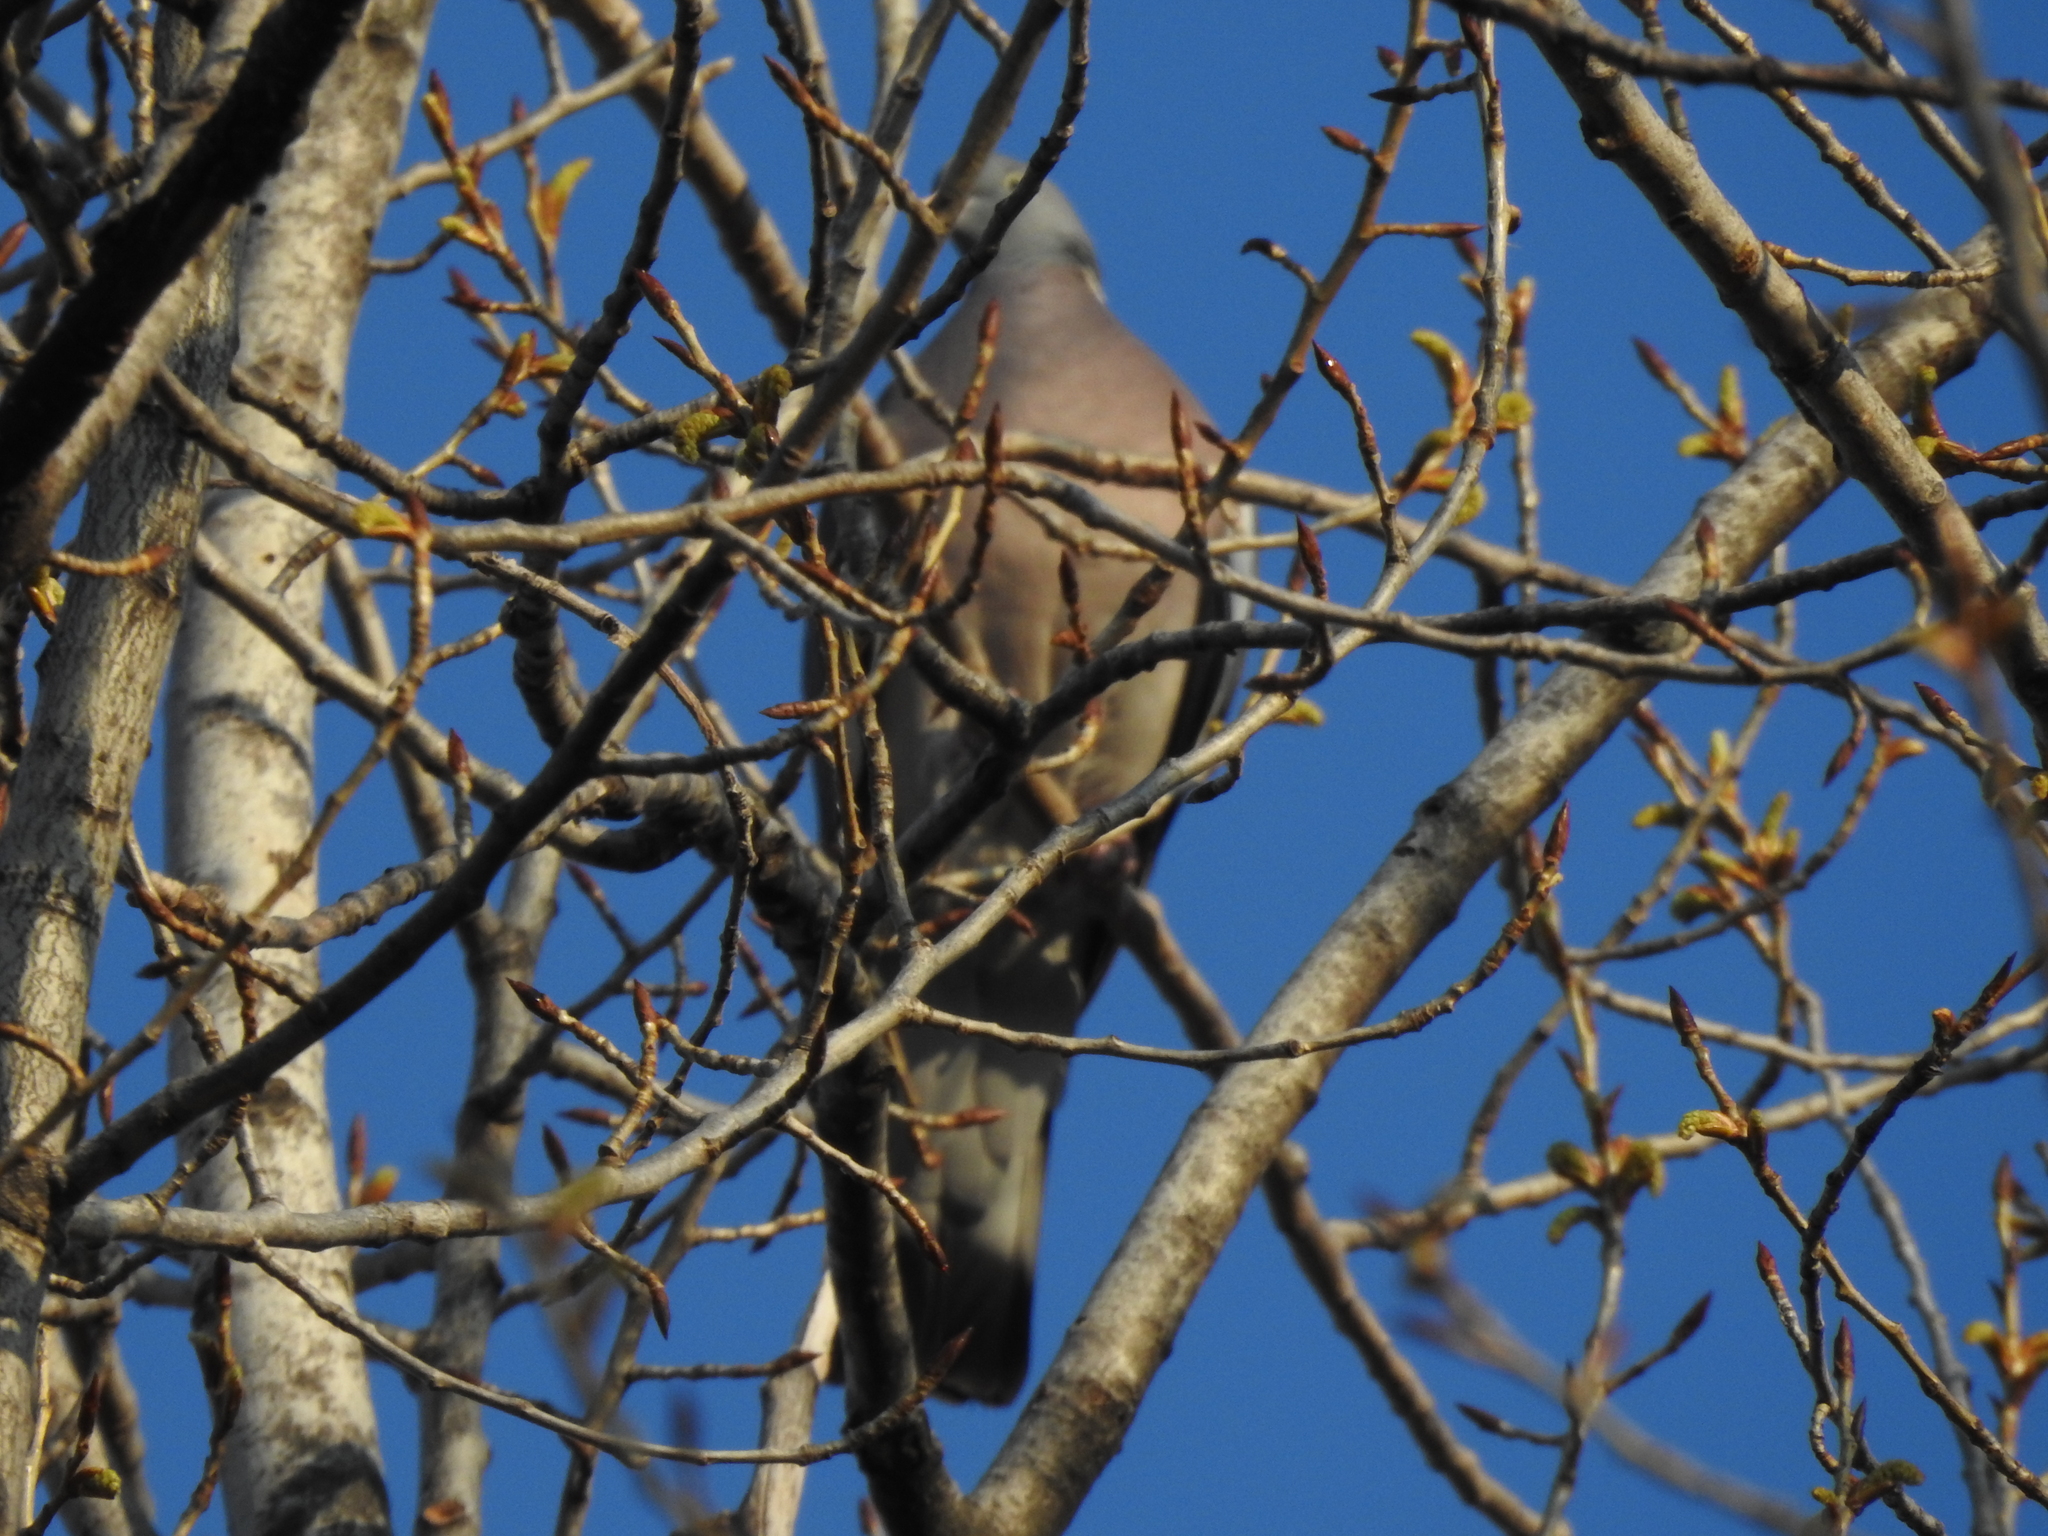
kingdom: Animalia
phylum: Chordata
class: Aves
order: Columbiformes
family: Columbidae
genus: Columba
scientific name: Columba palumbus
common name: Common wood pigeon
